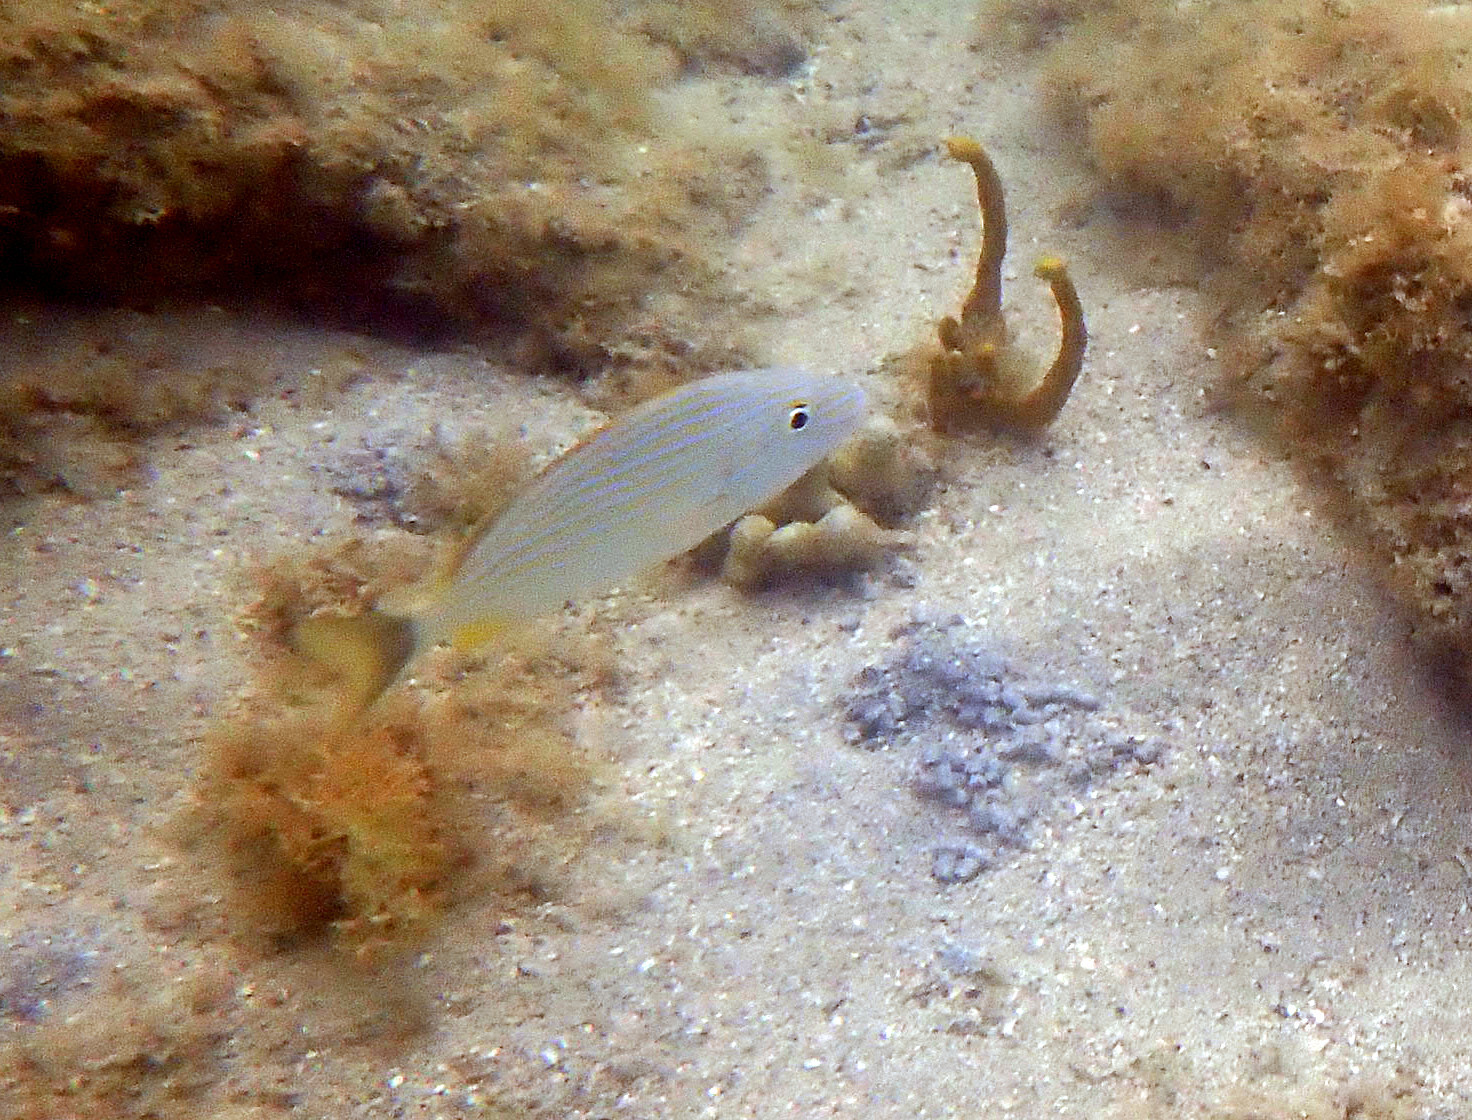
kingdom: Animalia
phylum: Chordata
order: Perciformes
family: Haemulidae
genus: Haemulon
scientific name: Haemulon sciurus
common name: Bluestriped grunt
